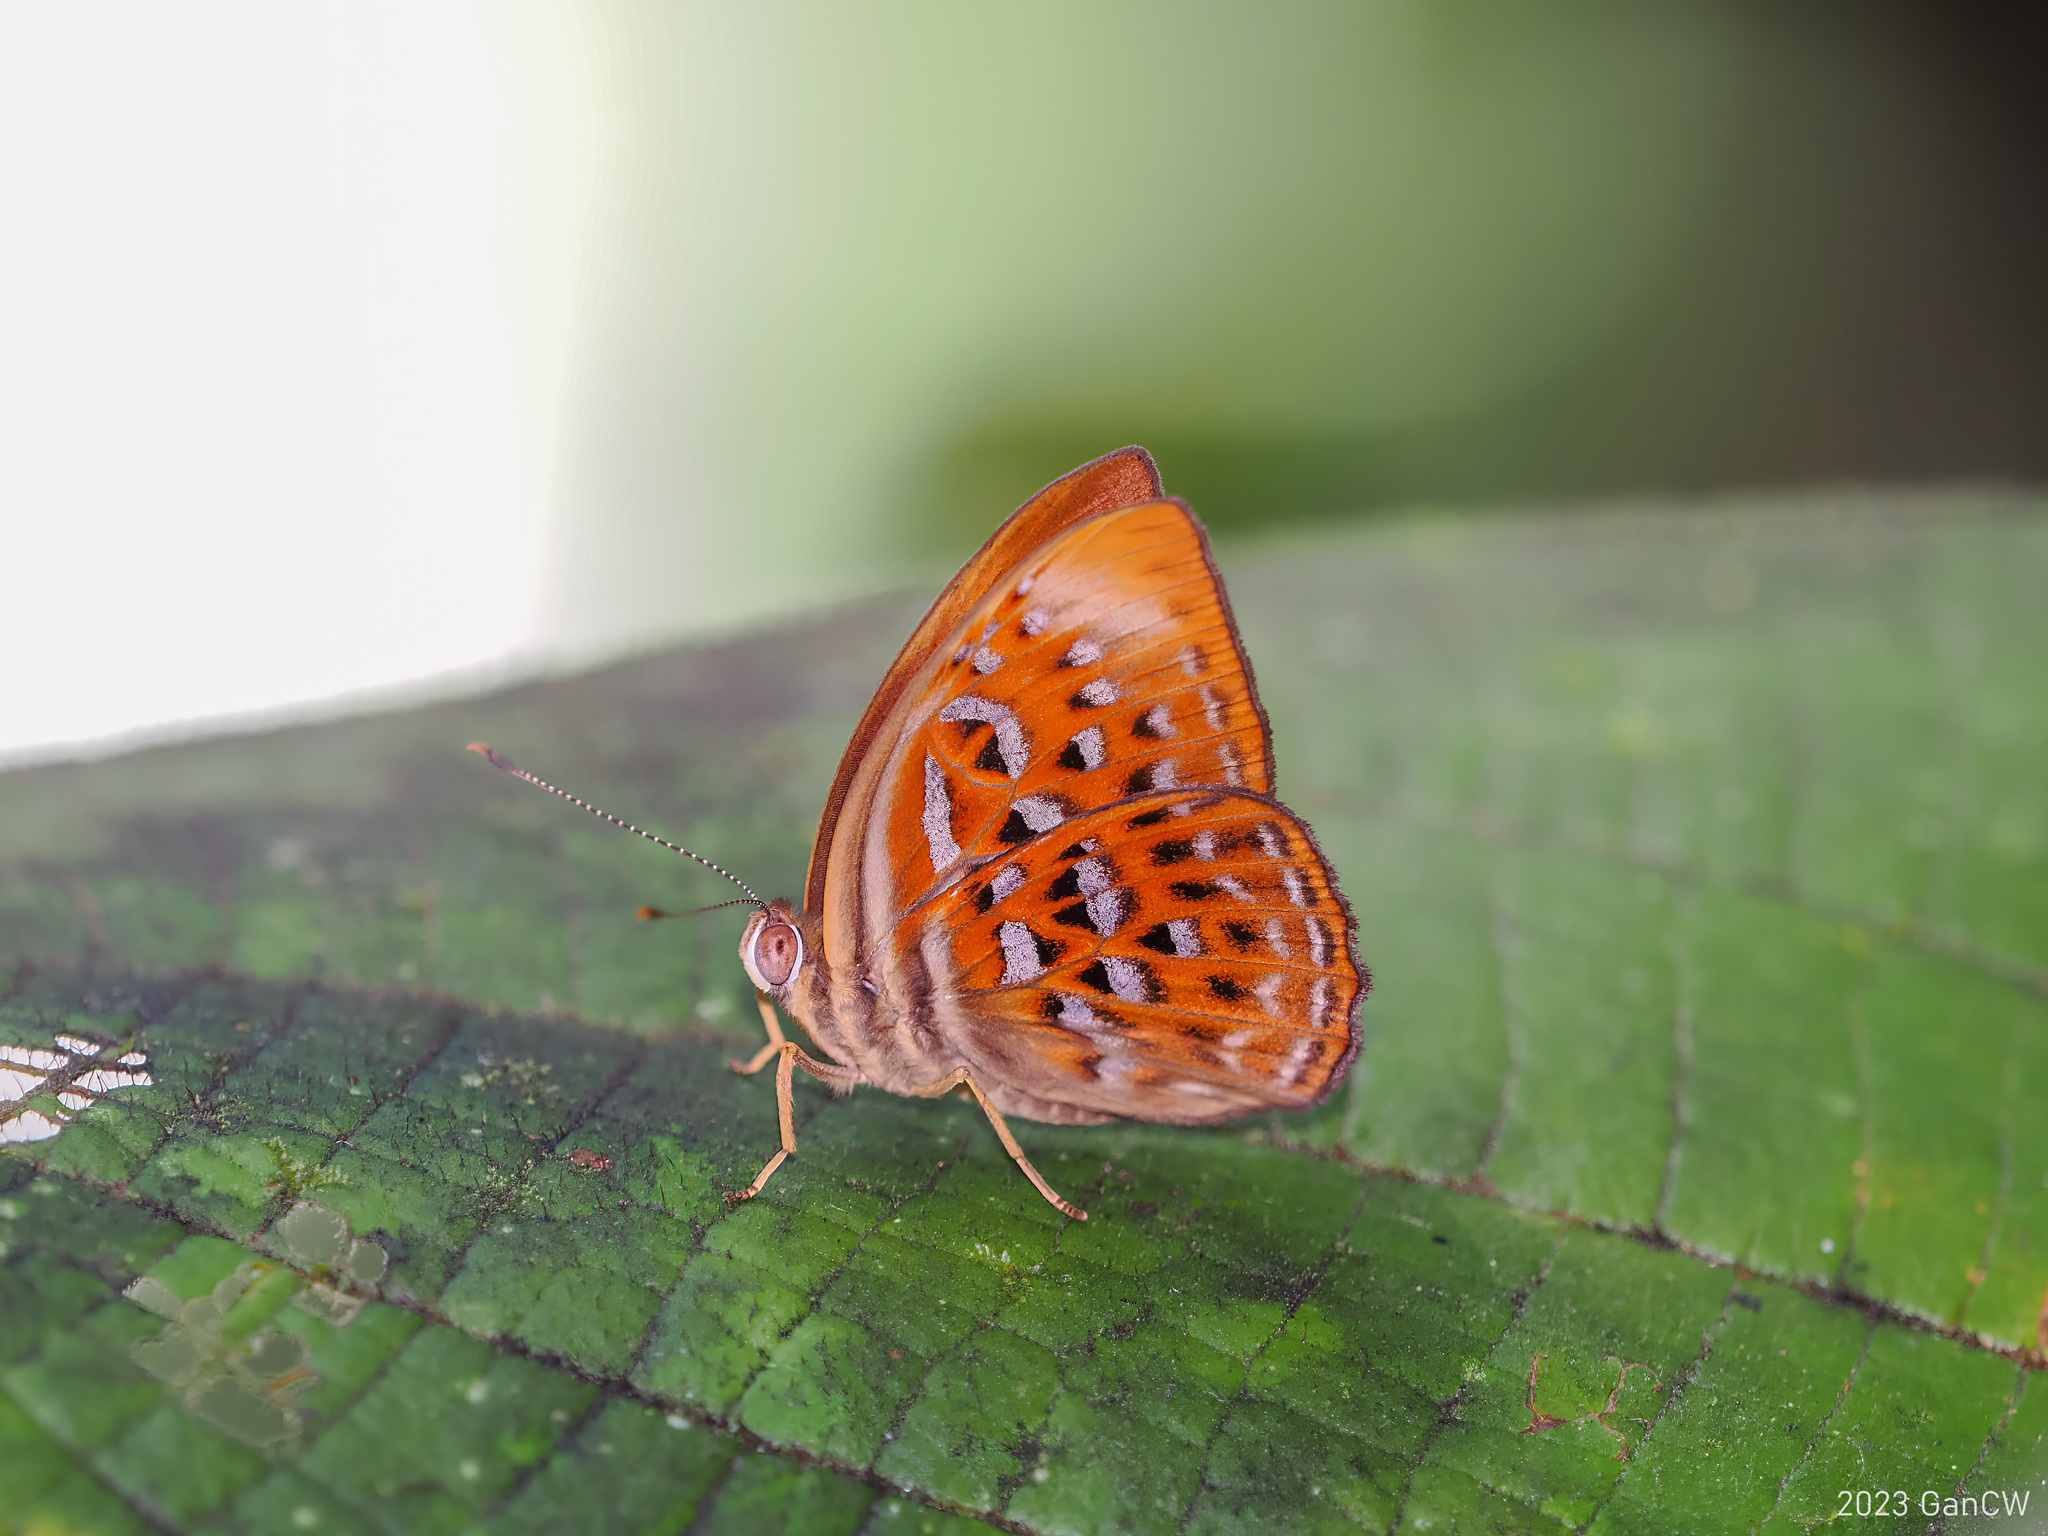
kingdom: Animalia
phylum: Arthropoda
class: Insecta
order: Lepidoptera
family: Erebidae
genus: Dysschema
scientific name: Dysschema
